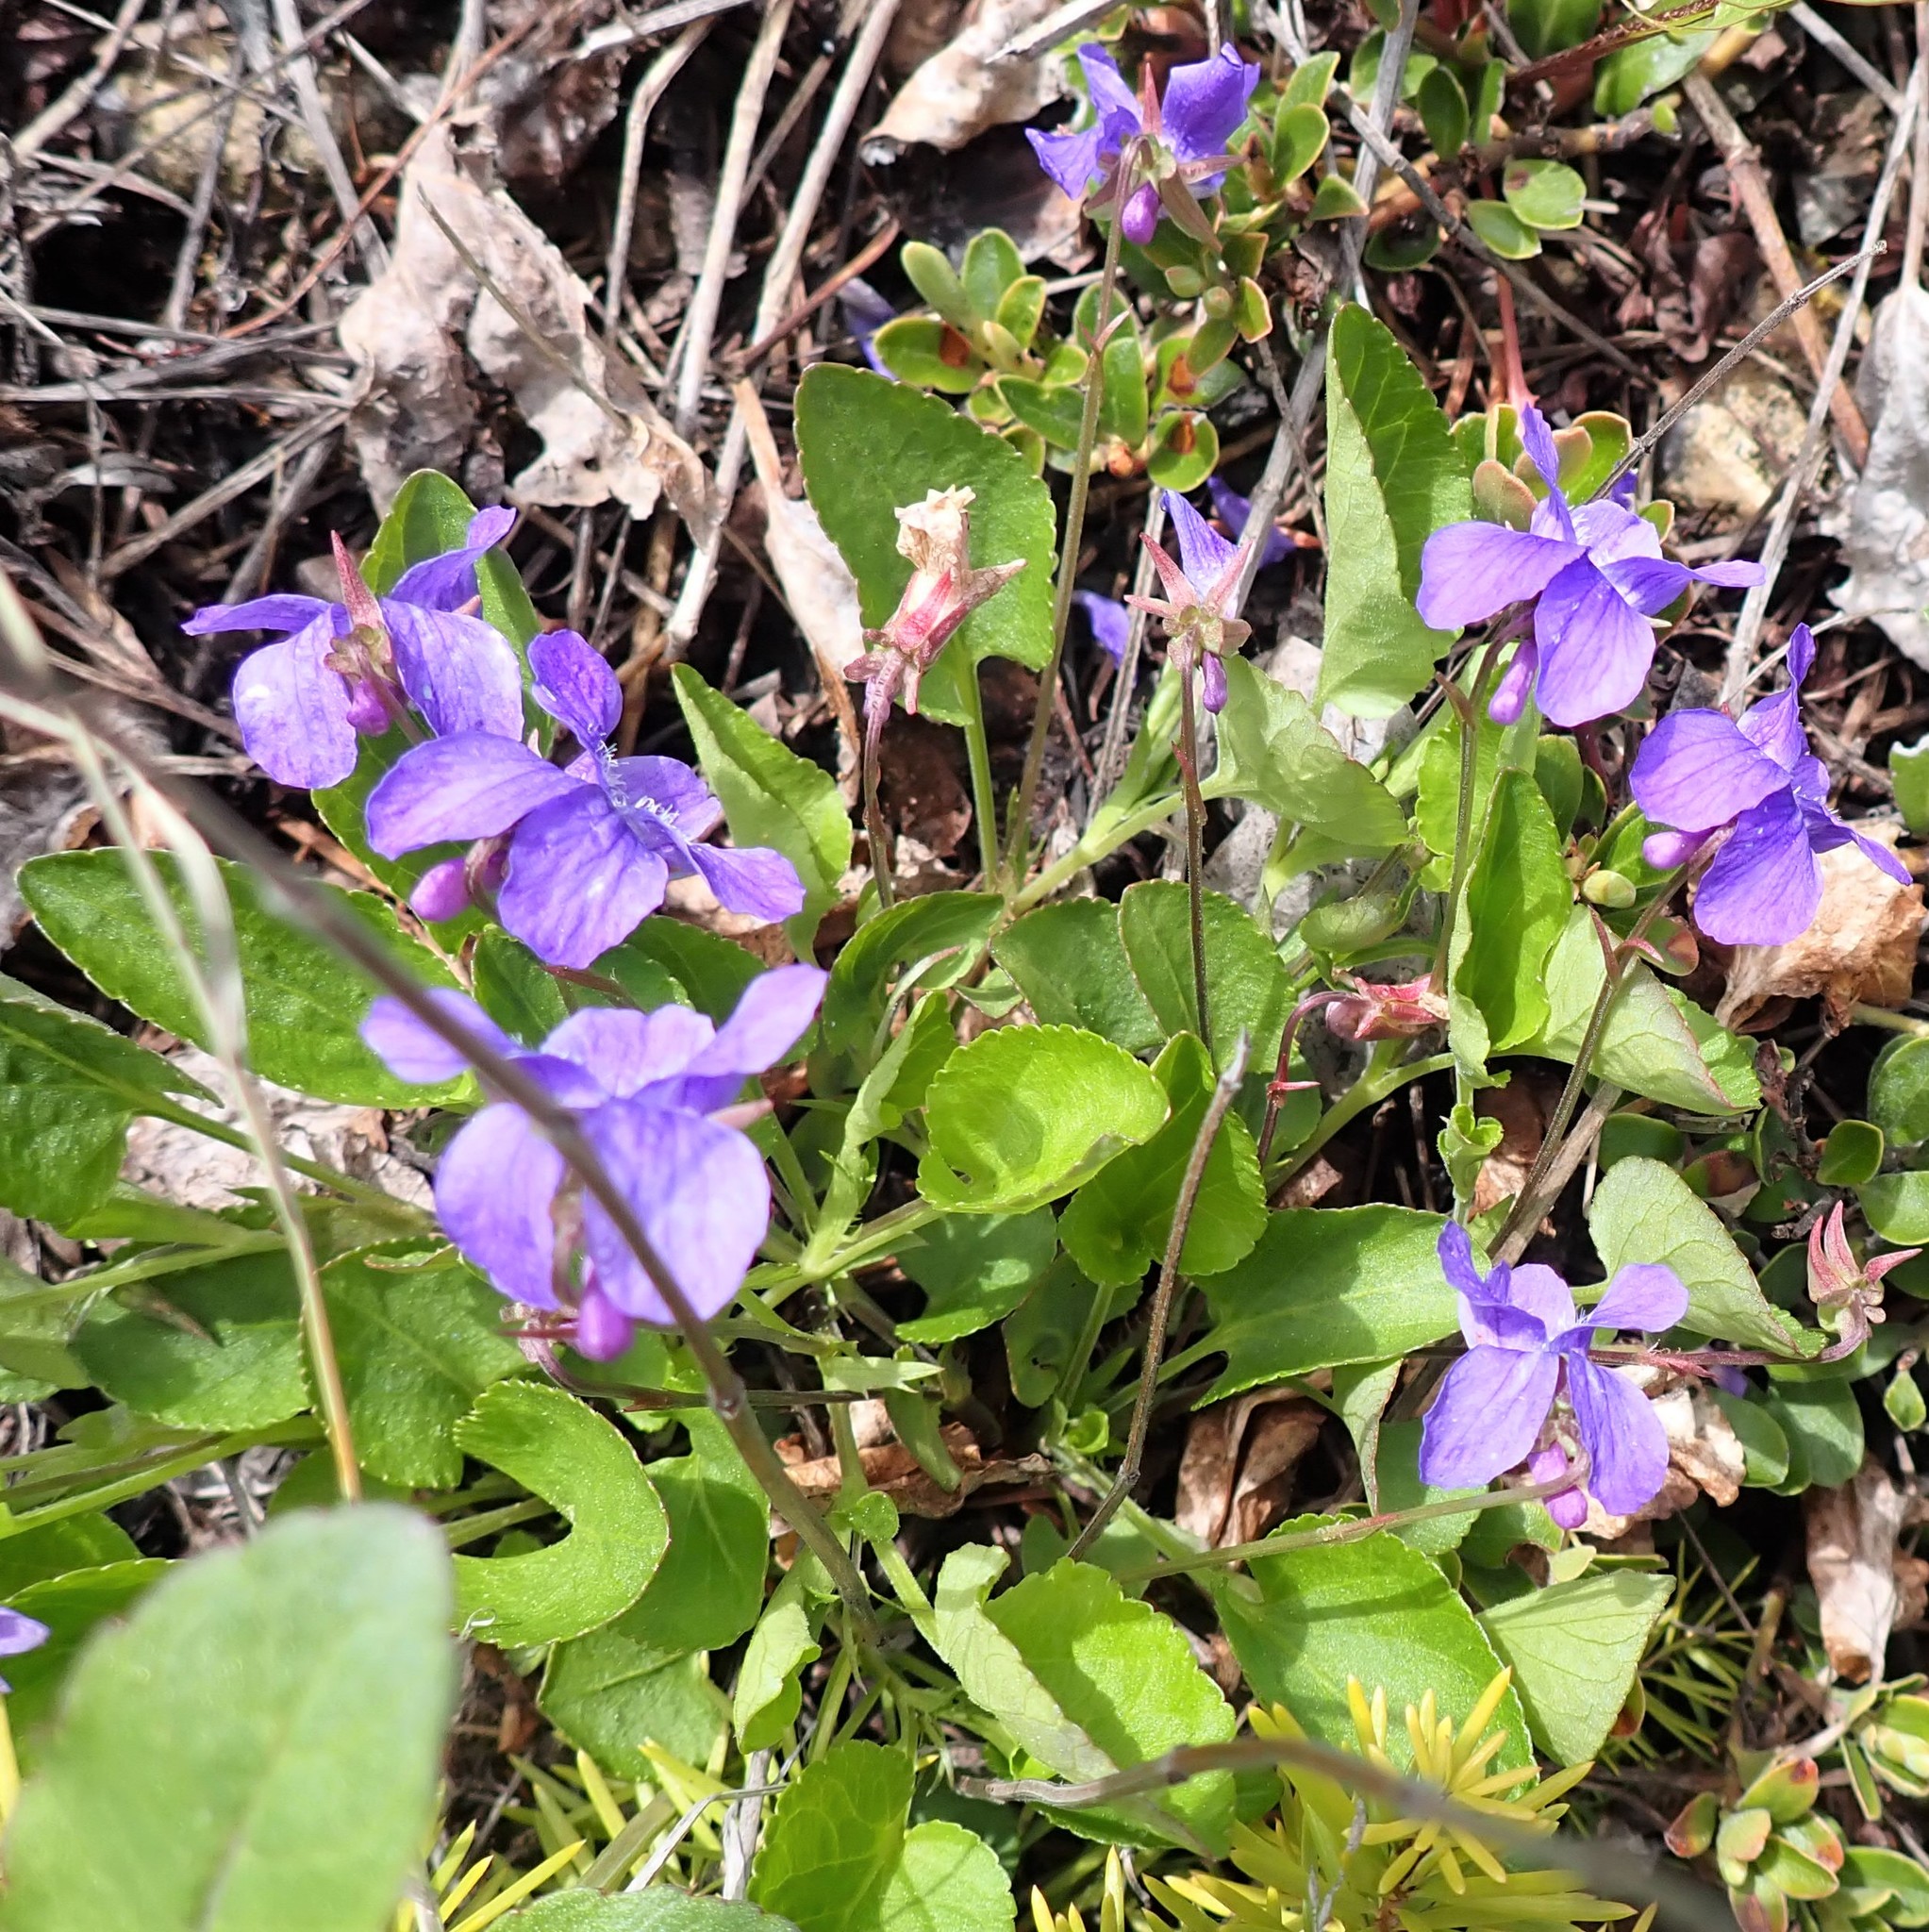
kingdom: Plantae
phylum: Tracheophyta
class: Magnoliopsida
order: Malpighiales
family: Violaceae
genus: Viola
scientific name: Viola adunca
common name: Sand violet
